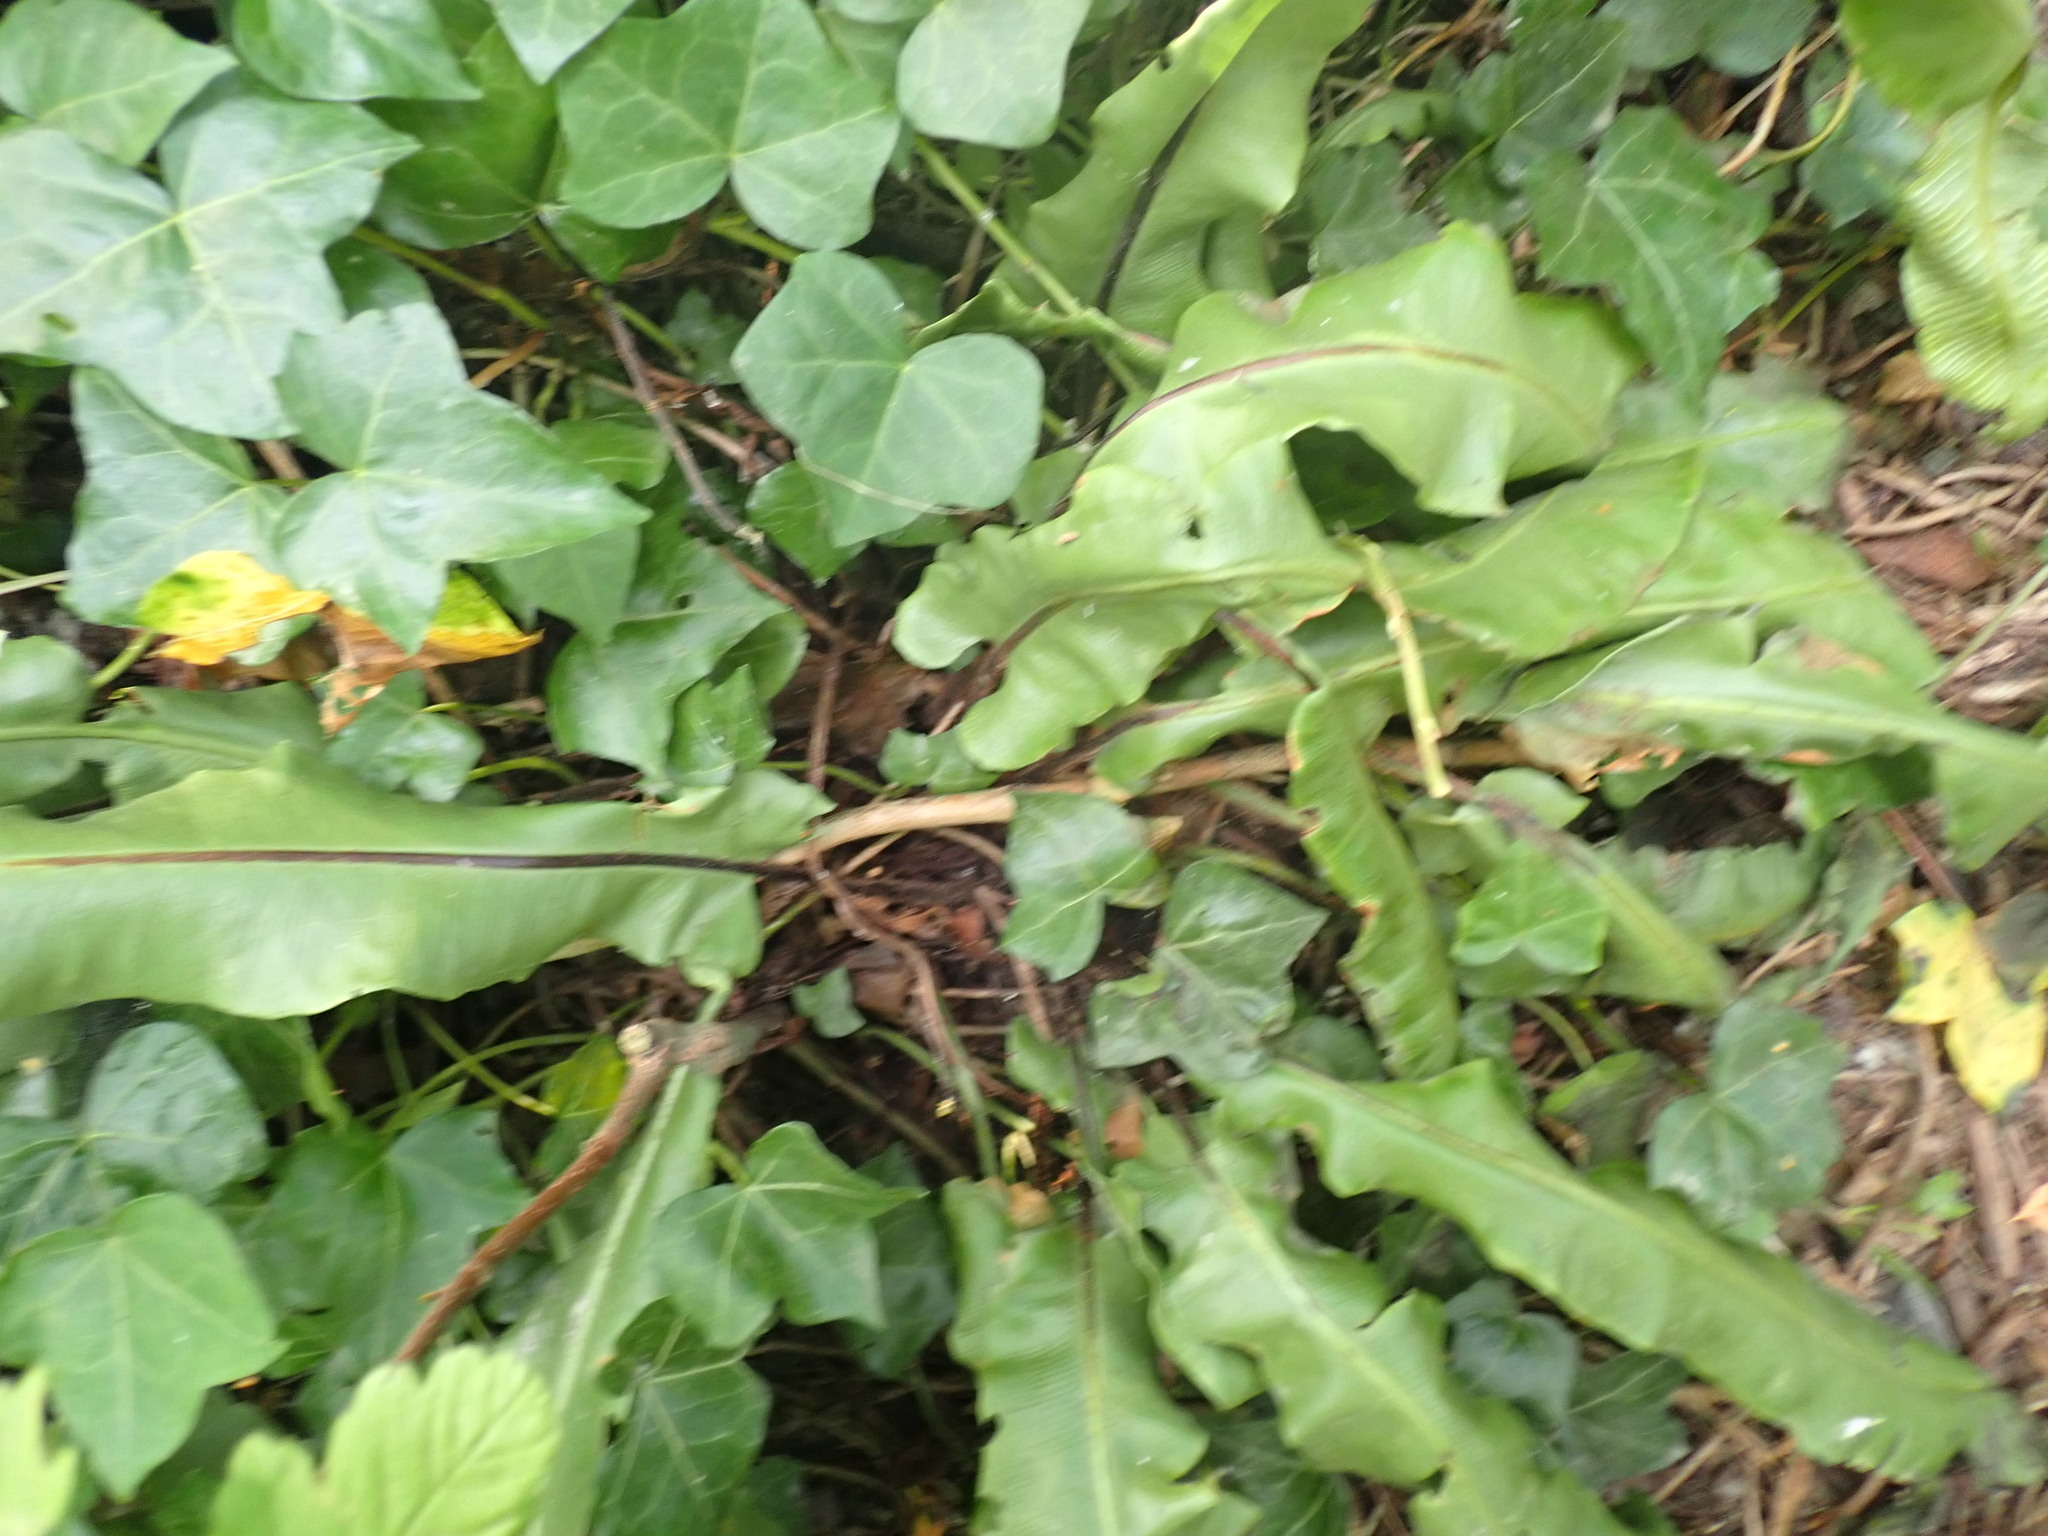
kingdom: Plantae
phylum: Tracheophyta
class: Polypodiopsida
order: Polypodiales
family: Aspleniaceae
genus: Asplenium
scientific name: Asplenium scolopendrium
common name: Hart's-tongue fern
